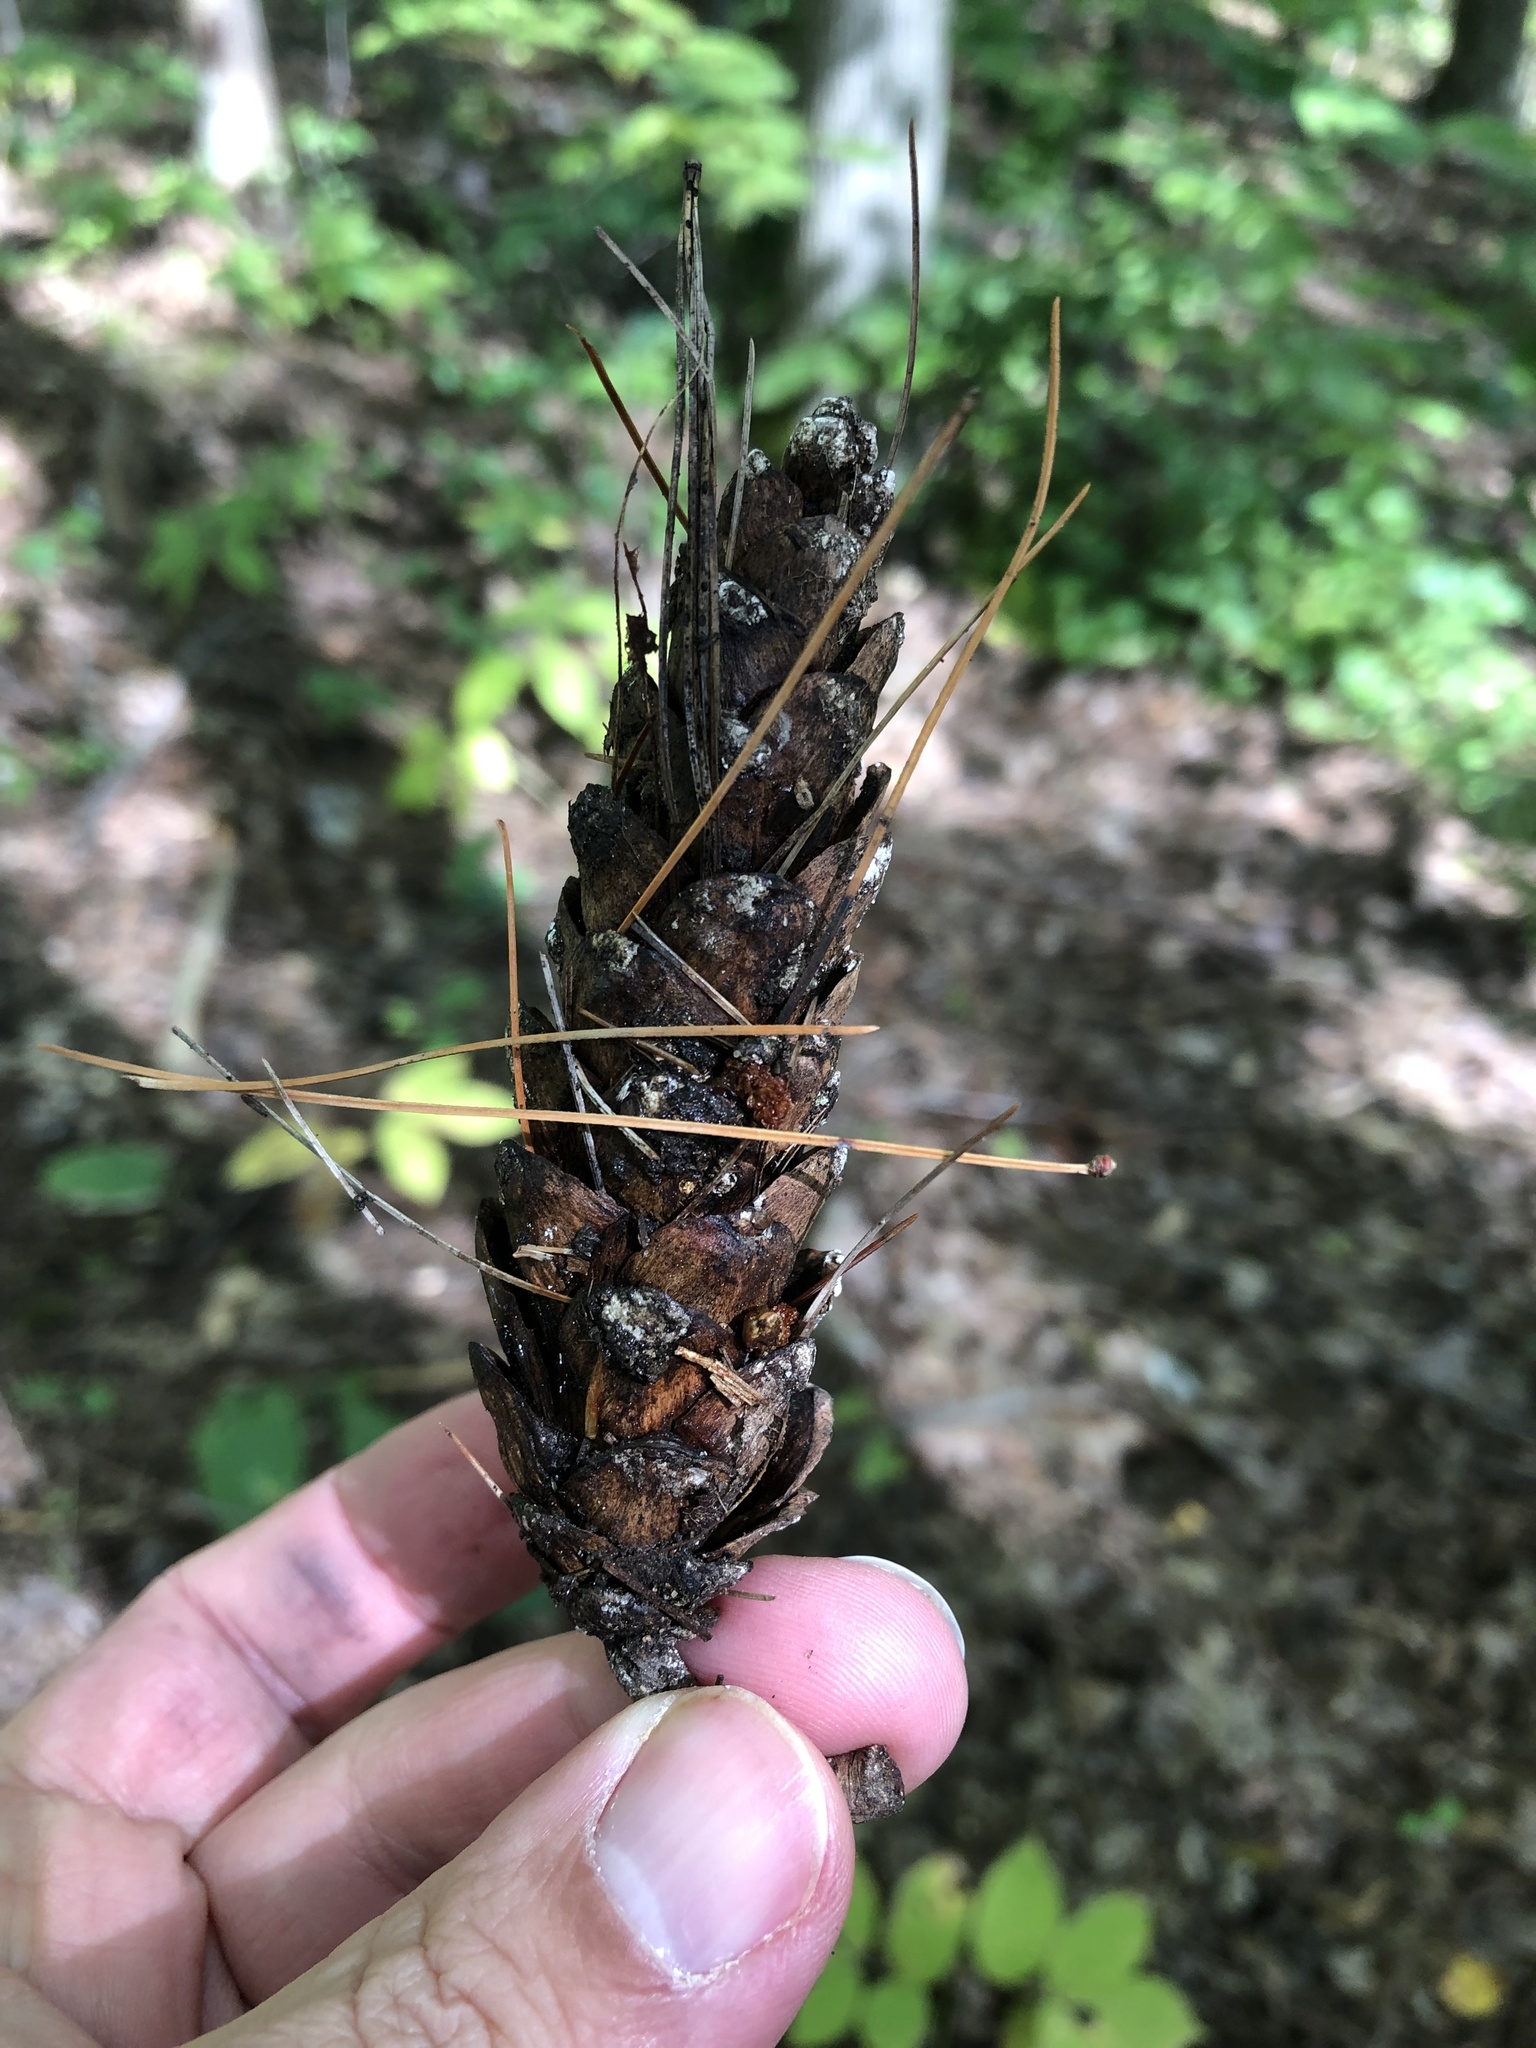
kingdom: Plantae
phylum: Tracheophyta
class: Pinopsida
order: Pinales
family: Pinaceae
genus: Pinus
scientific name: Pinus strobus
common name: Weymouth pine
